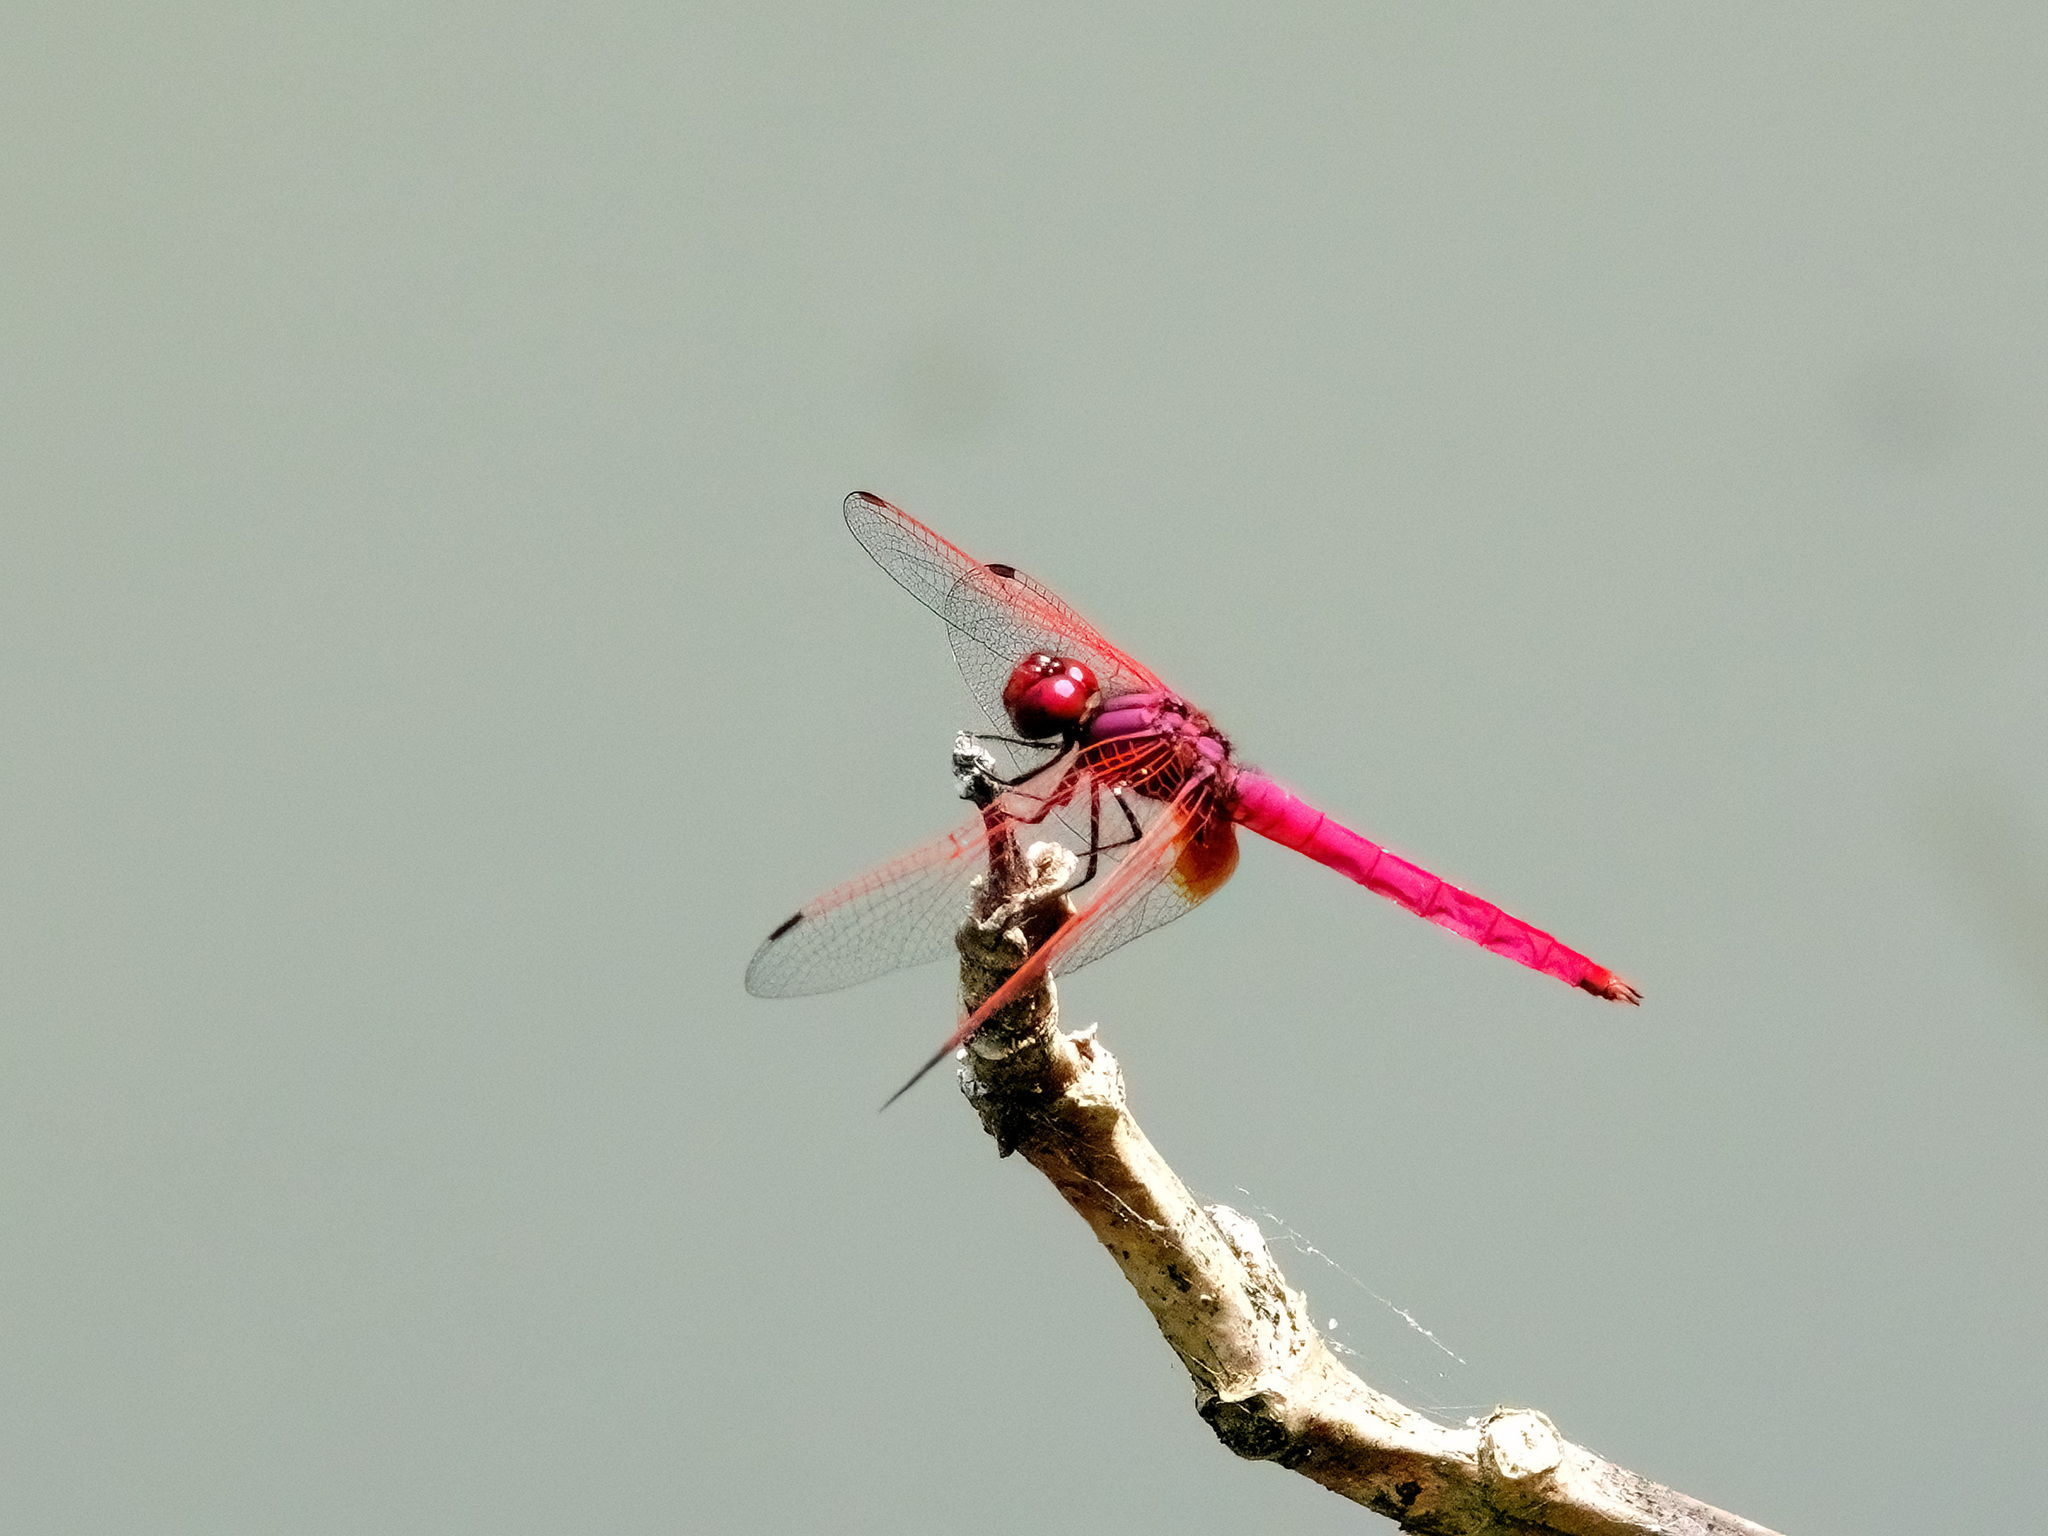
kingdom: Animalia
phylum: Arthropoda
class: Insecta
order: Odonata
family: Libellulidae
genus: Trithemis
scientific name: Trithemis aurora
